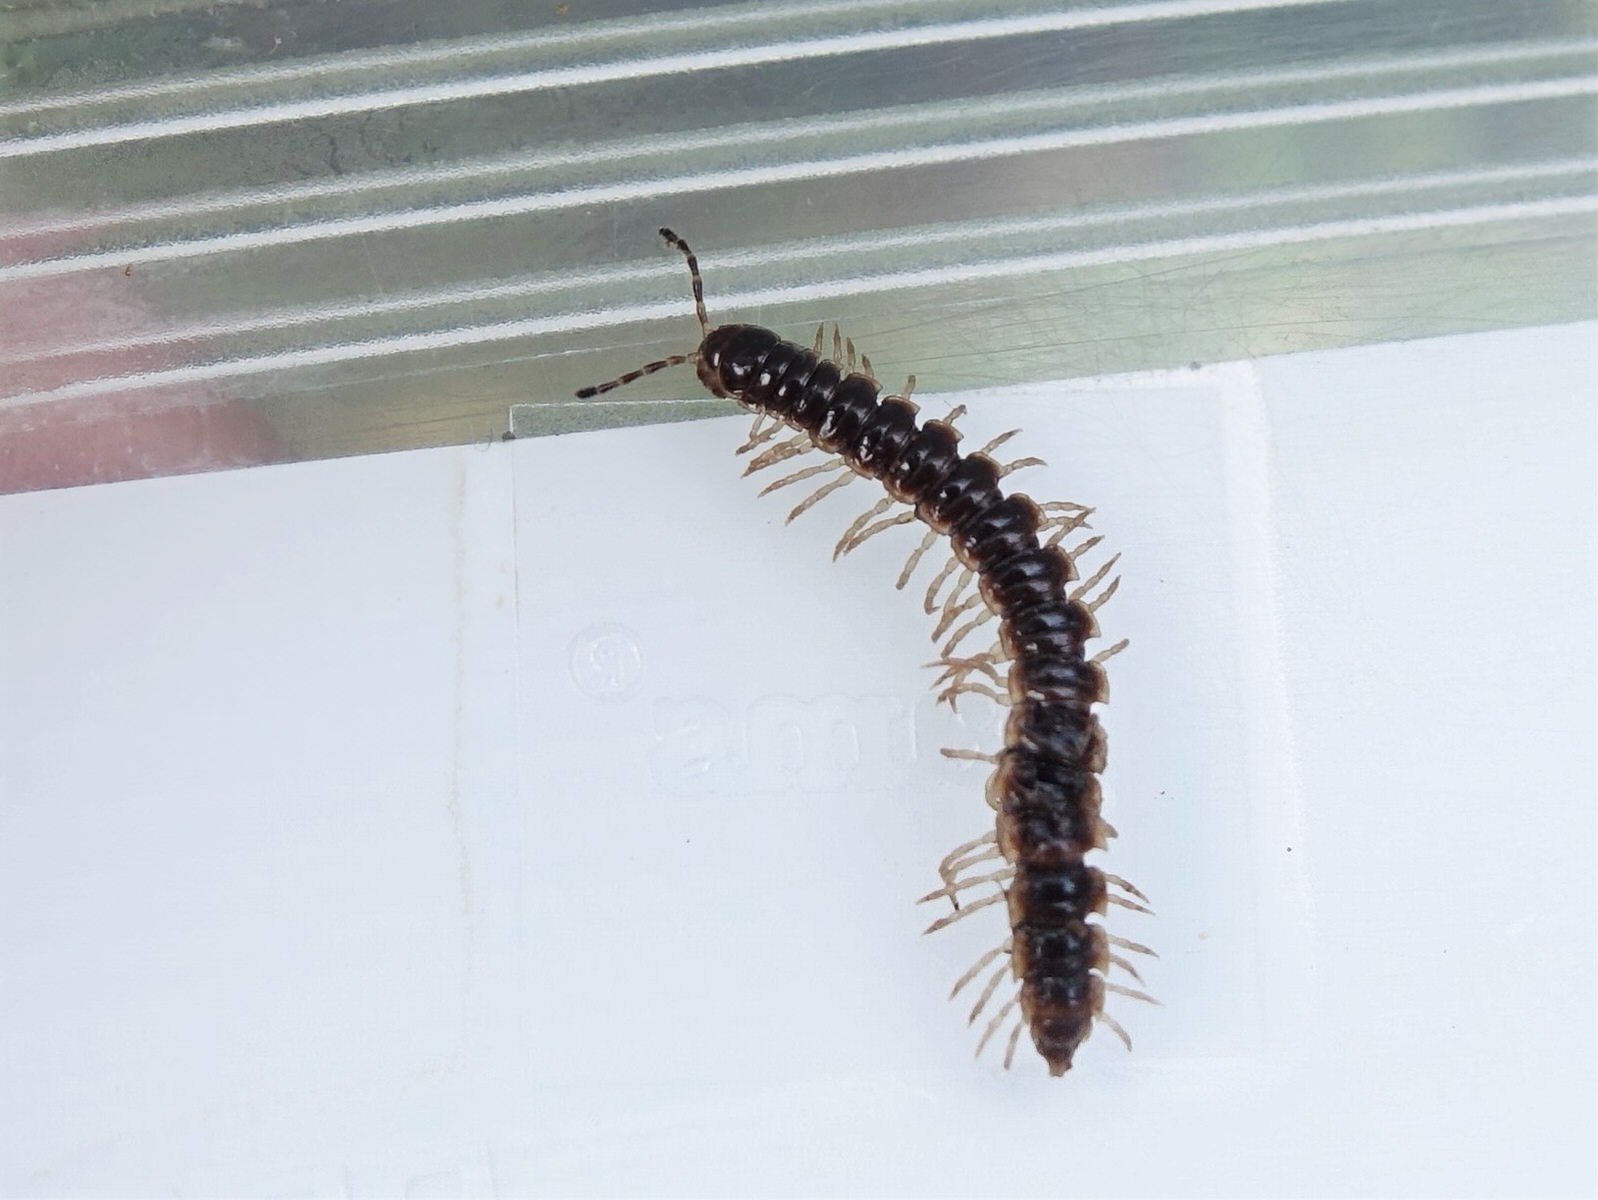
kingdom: Animalia
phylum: Arthropoda
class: Diplopoda
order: Polydesmida
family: Paradoxosomatidae
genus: Oxidus
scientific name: Oxidus gracilis
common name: Greenhouse millipede
